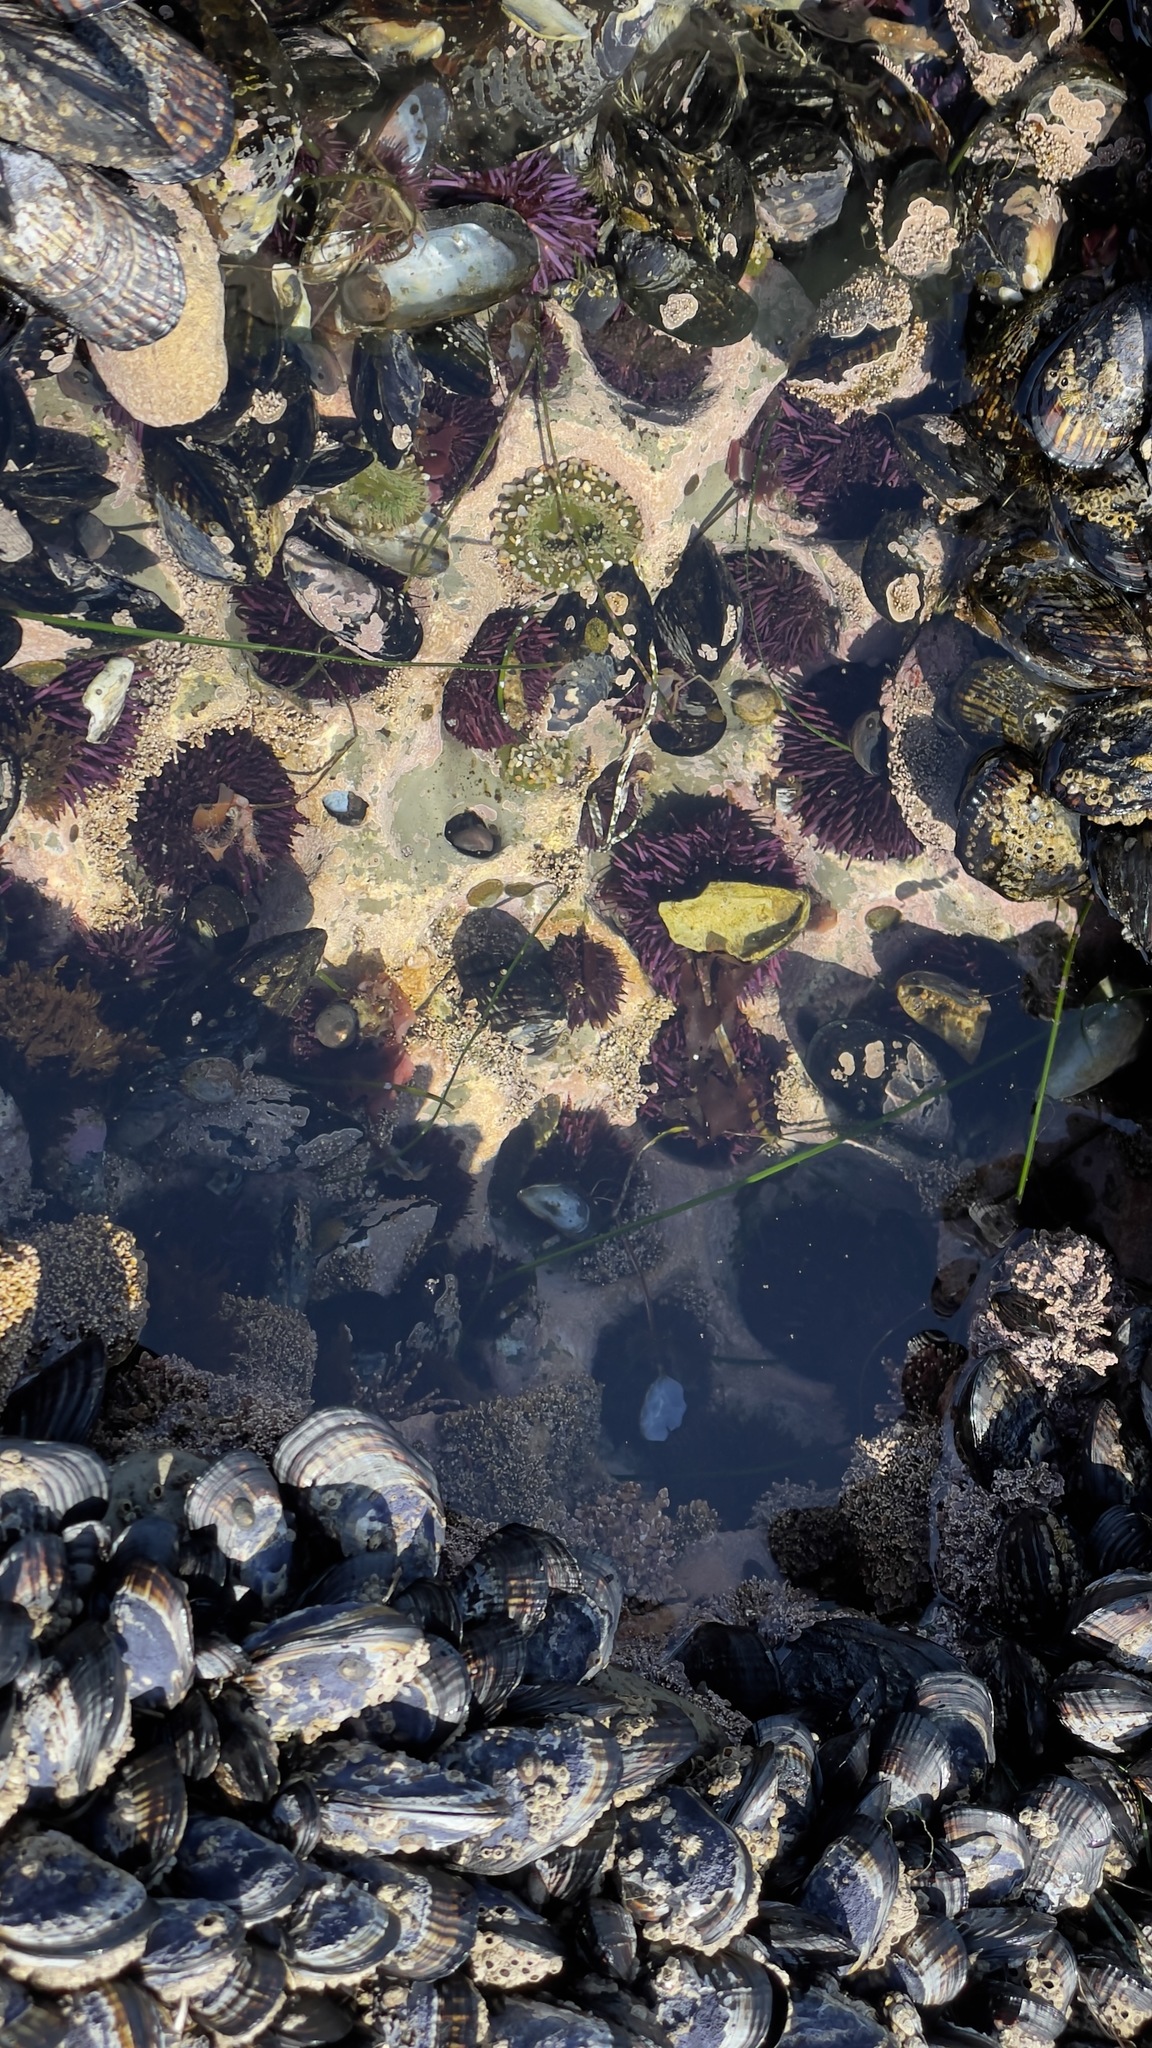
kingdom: Animalia
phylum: Echinodermata
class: Echinoidea
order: Camarodonta
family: Strongylocentrotidae
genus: Strongylocentrotus
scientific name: Strongylocentrotus purpuratus
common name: Purple sea urchin
